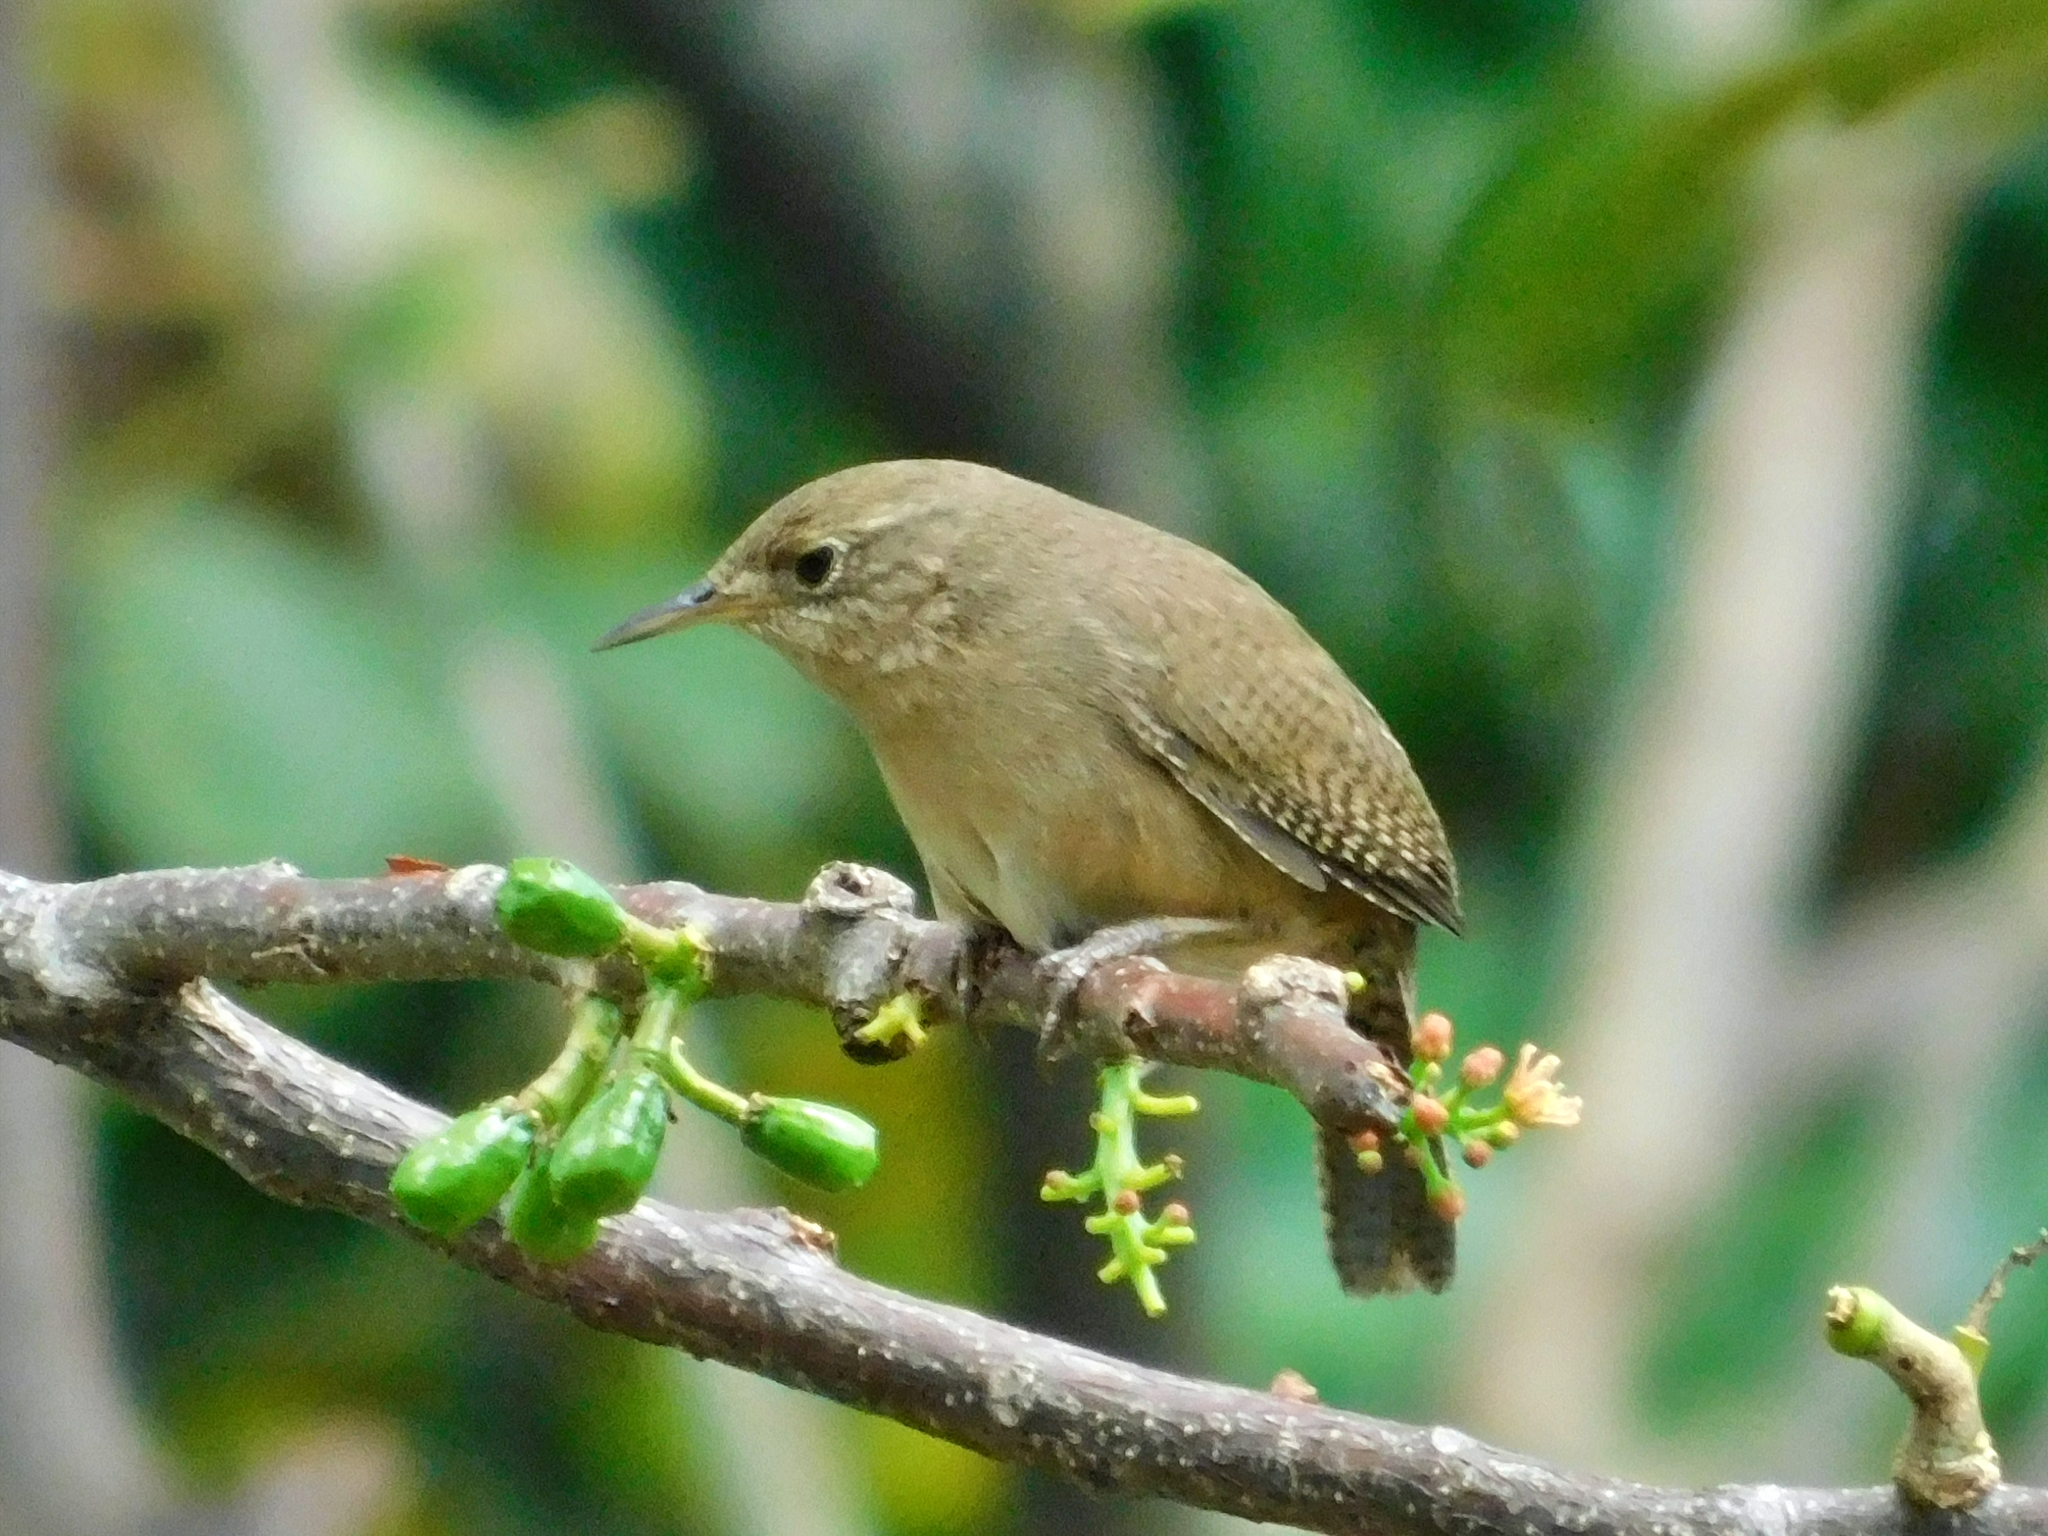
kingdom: Animalia
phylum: Chordata
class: Aves
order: Passeriformes
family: Troglodytidae
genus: Troglodytes
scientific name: Troglodytes aedon
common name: House wren
